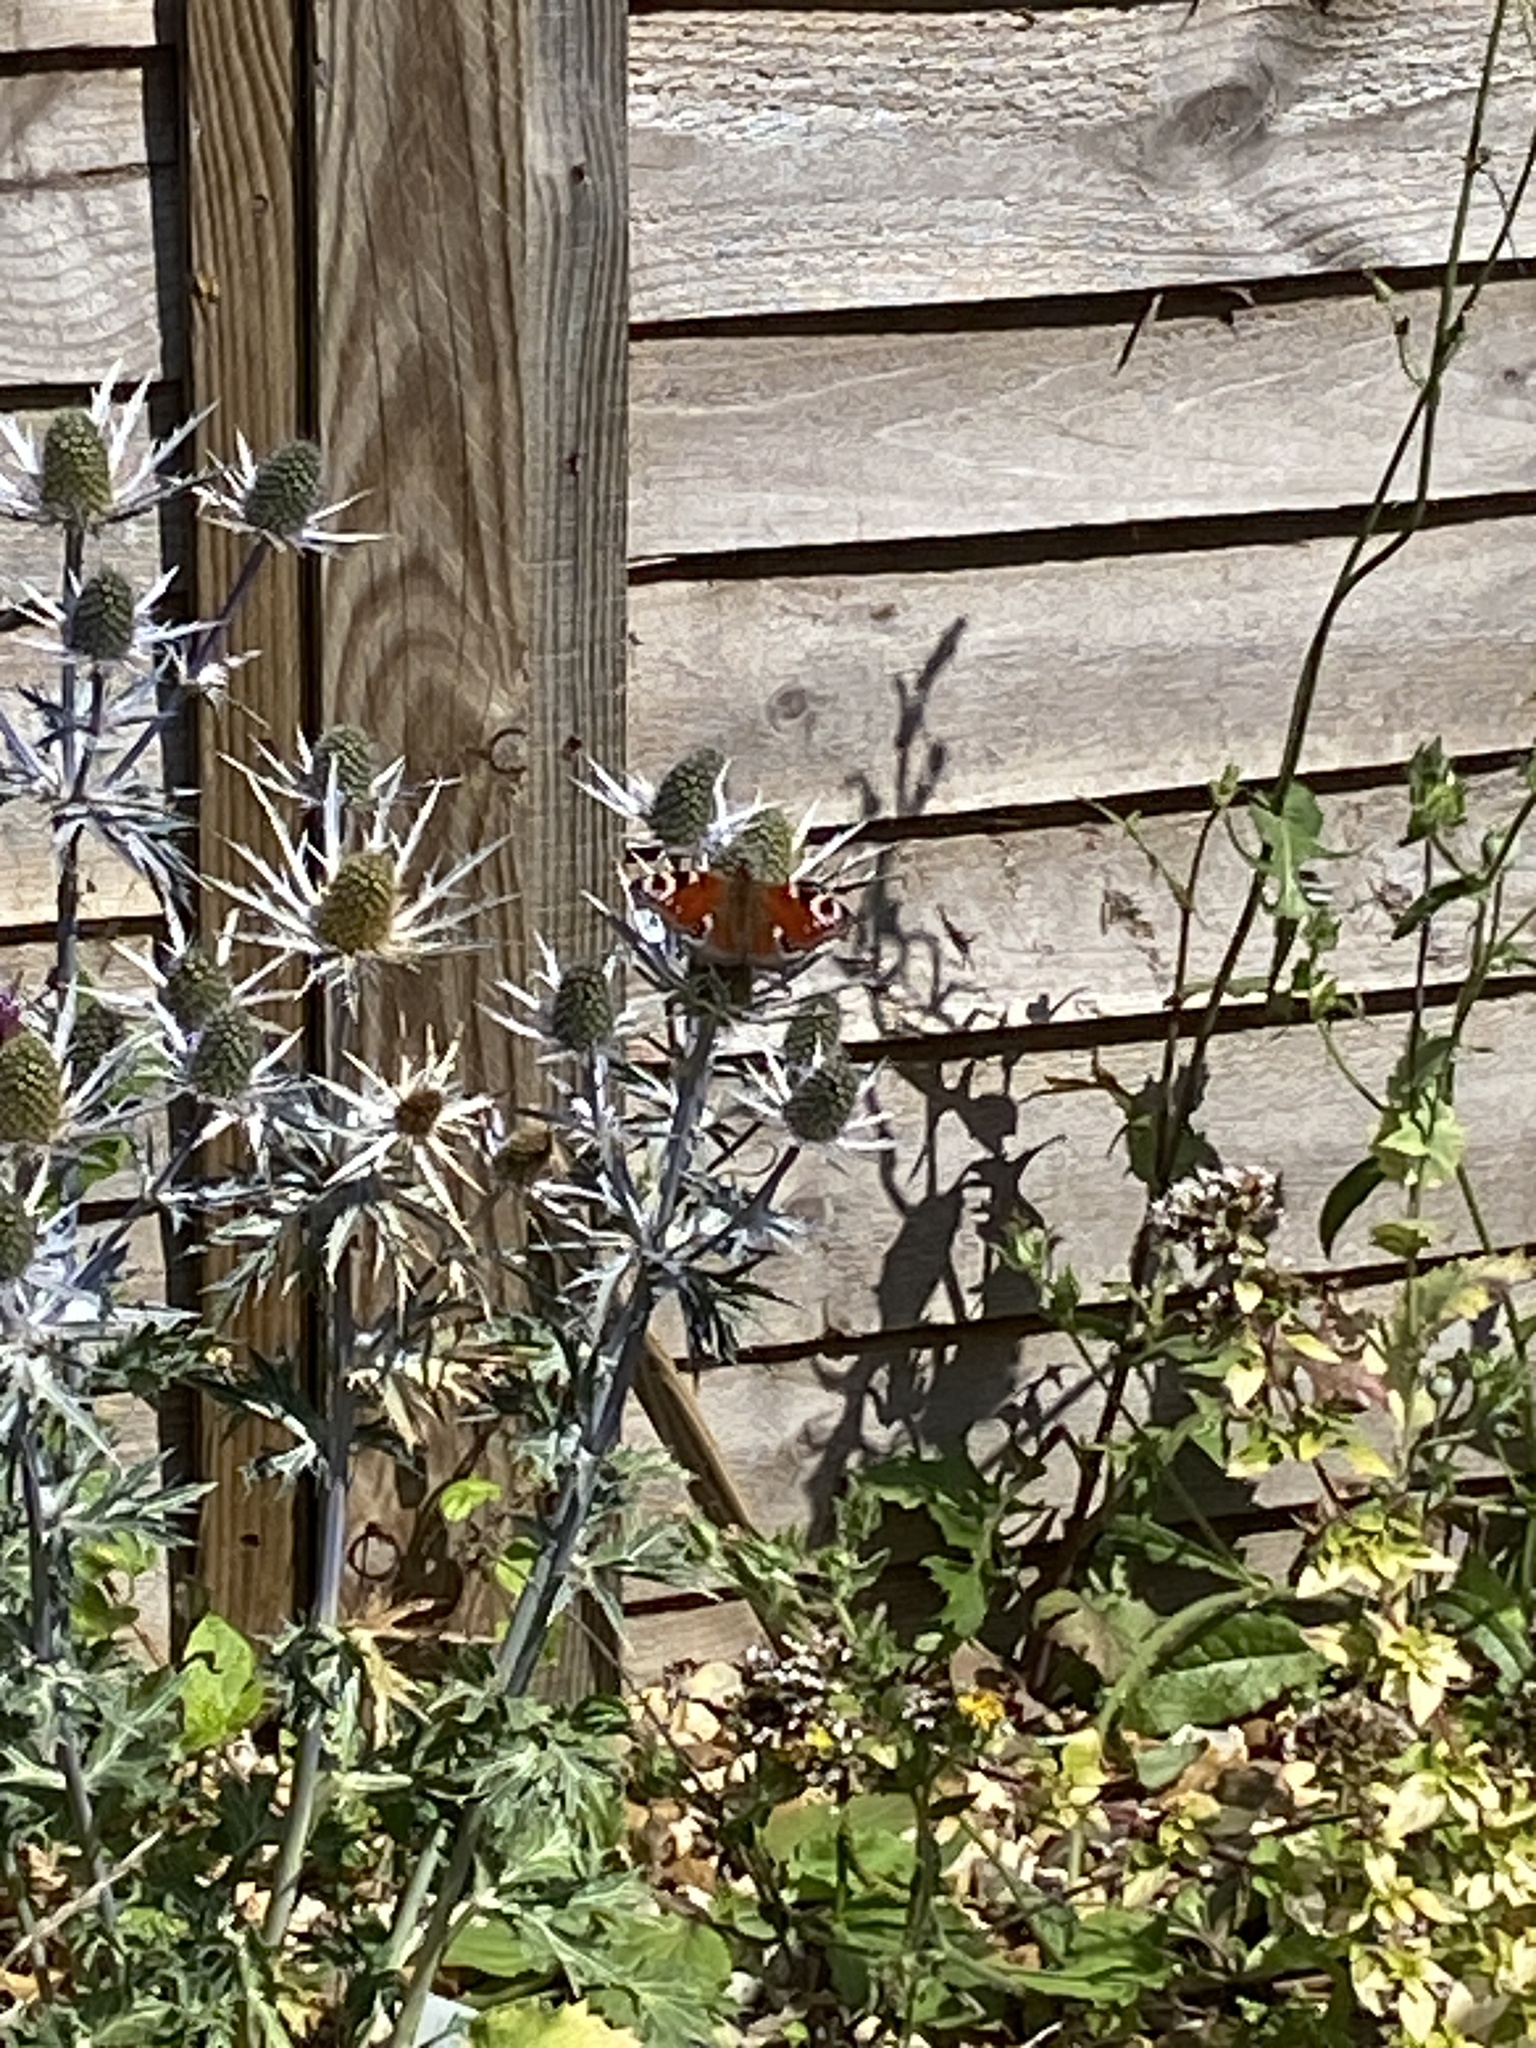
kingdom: Animalia
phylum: Arthropoda
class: Insecta
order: Lepidoptera
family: Nymphalidae
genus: Aglais
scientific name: Aglais io
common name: Peacock
